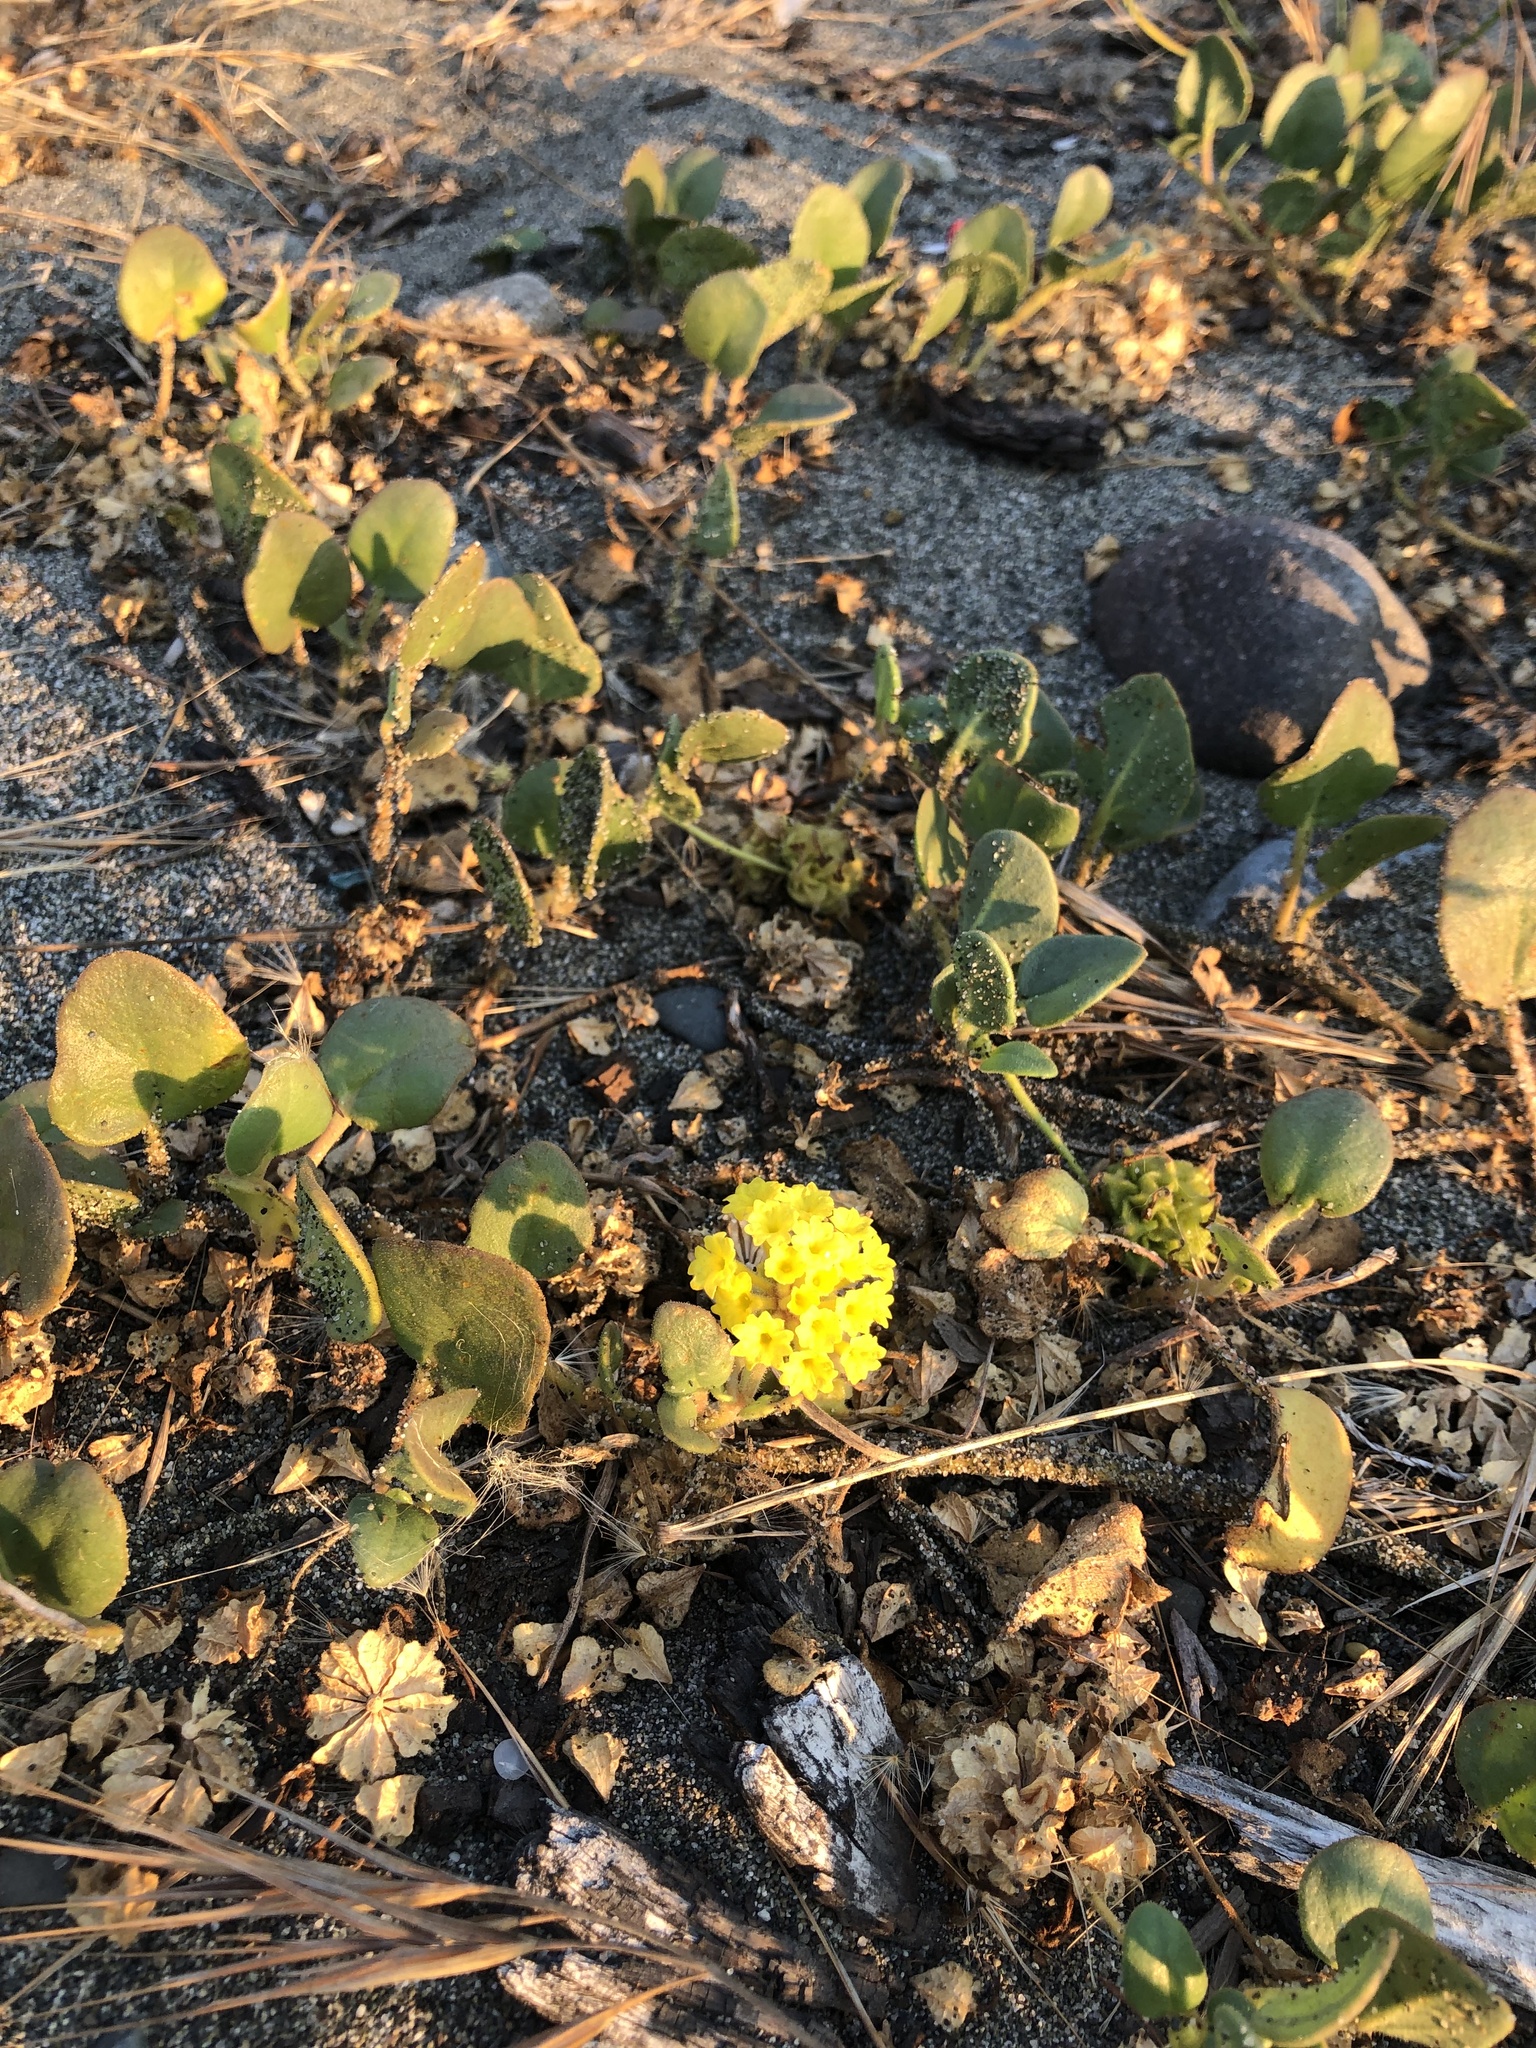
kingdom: Plantae
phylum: Tracheophyta
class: Magnoliopsida
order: Caryophyllales
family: Nyctaginaceae
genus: Abronia
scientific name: Abronia latifolia
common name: Yellow sand-verbena
